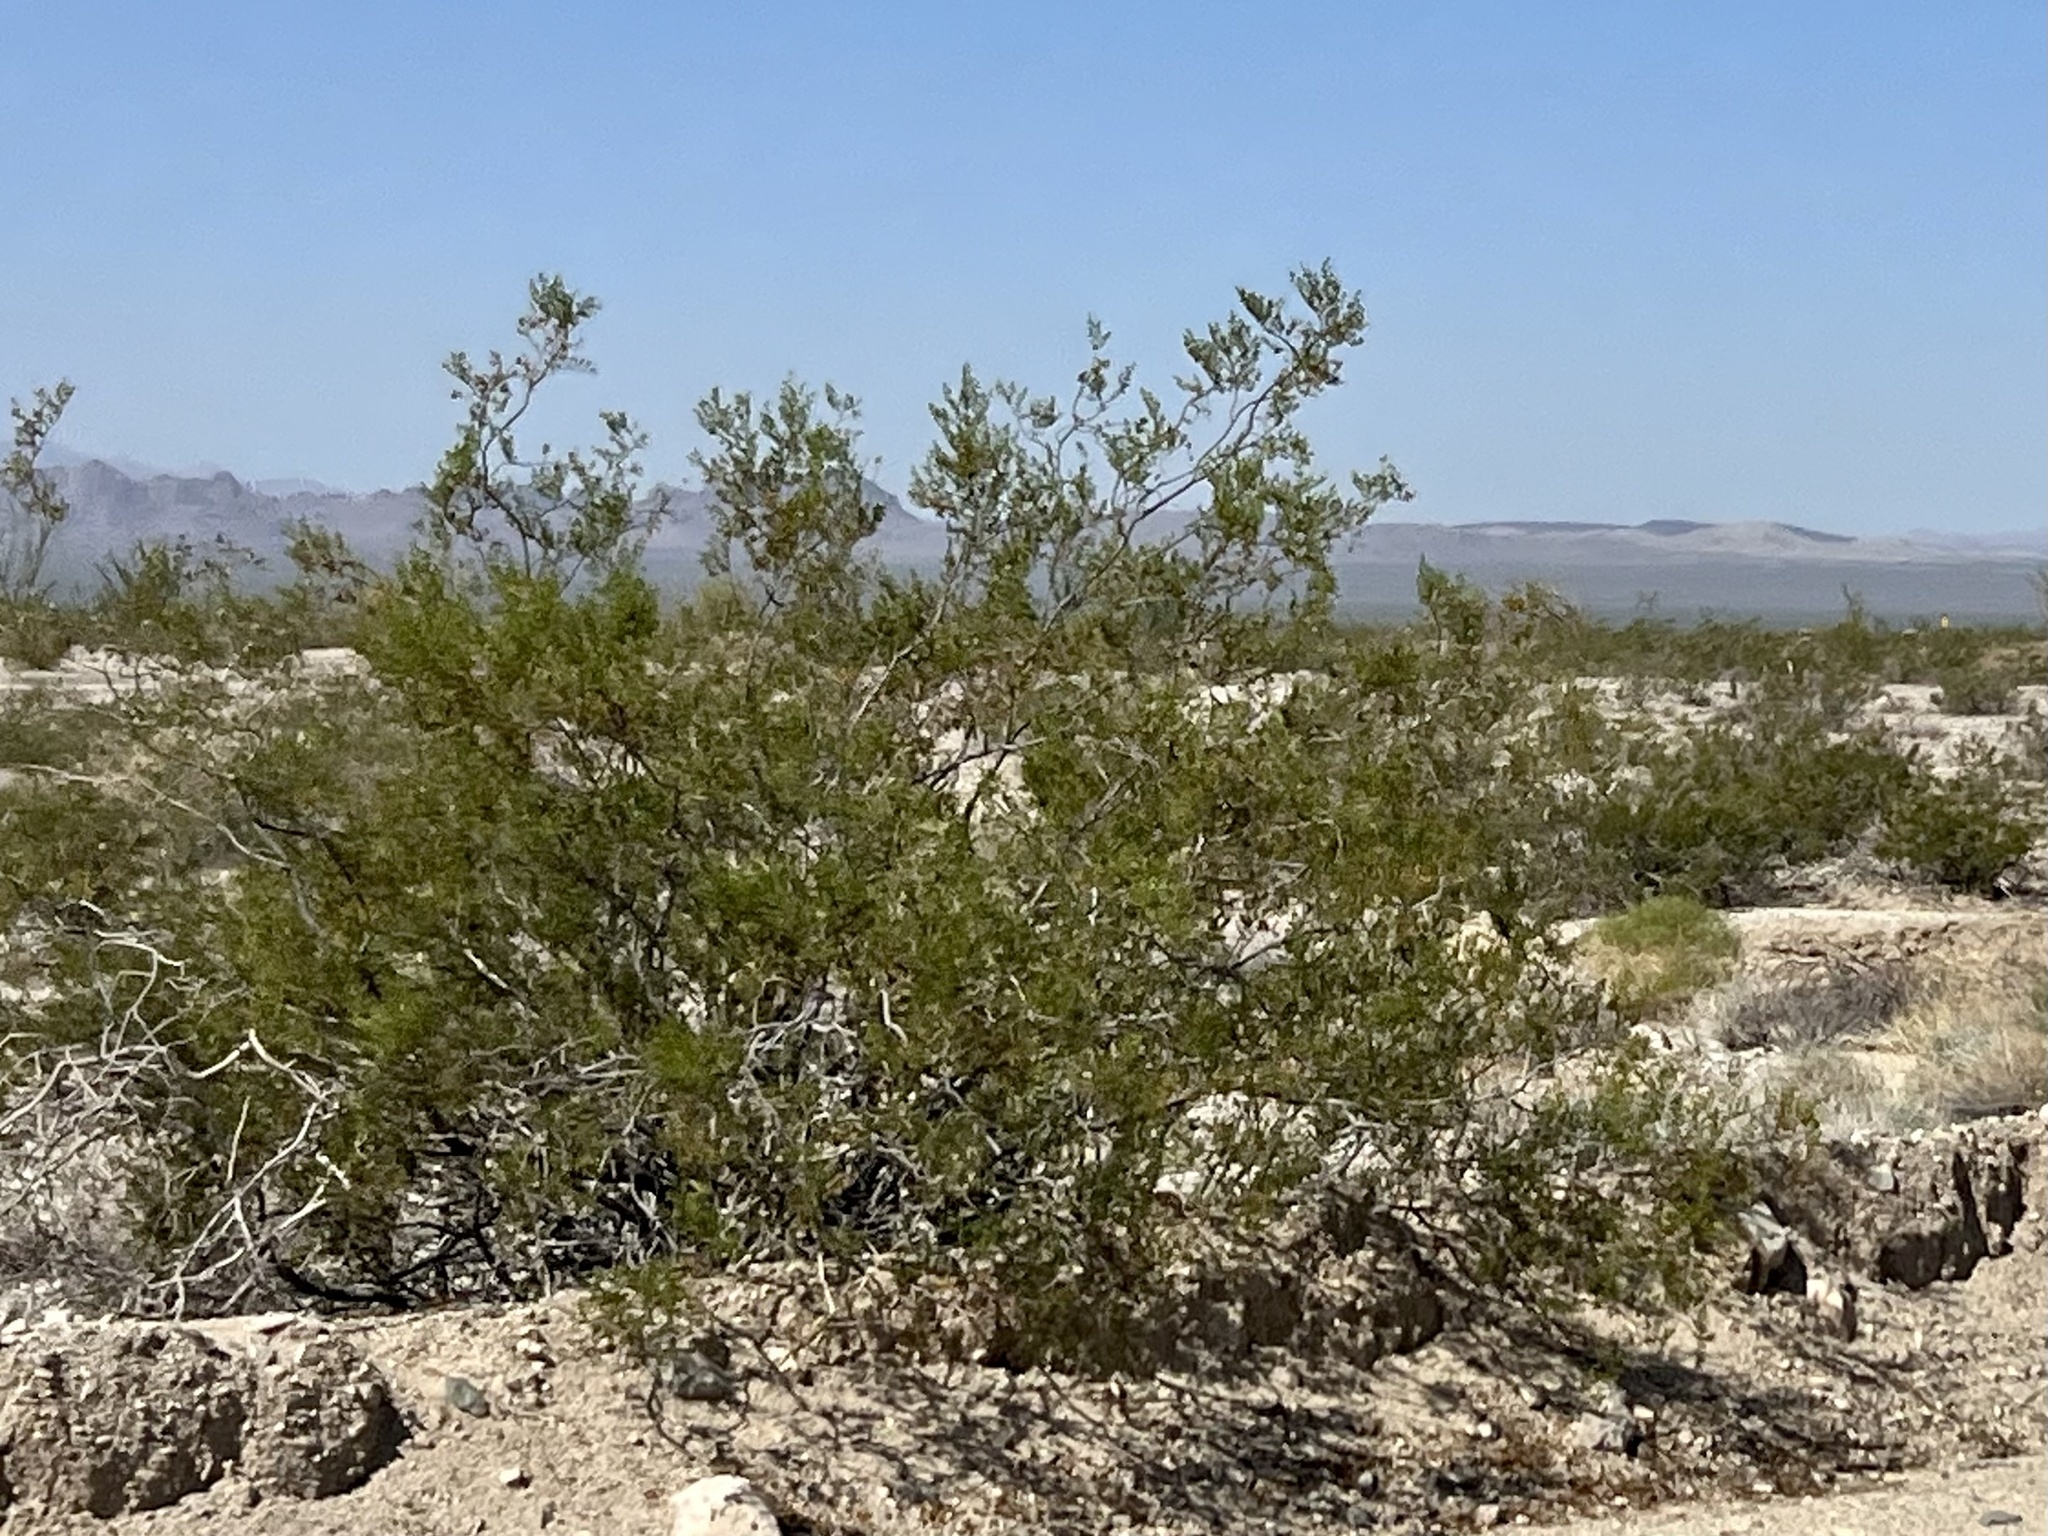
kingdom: Plantae
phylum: Tracheophyta
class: Magnoliopsida
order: Zygophyllales
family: Zygophyllaceae
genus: Larrea
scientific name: Larrea tridentata
